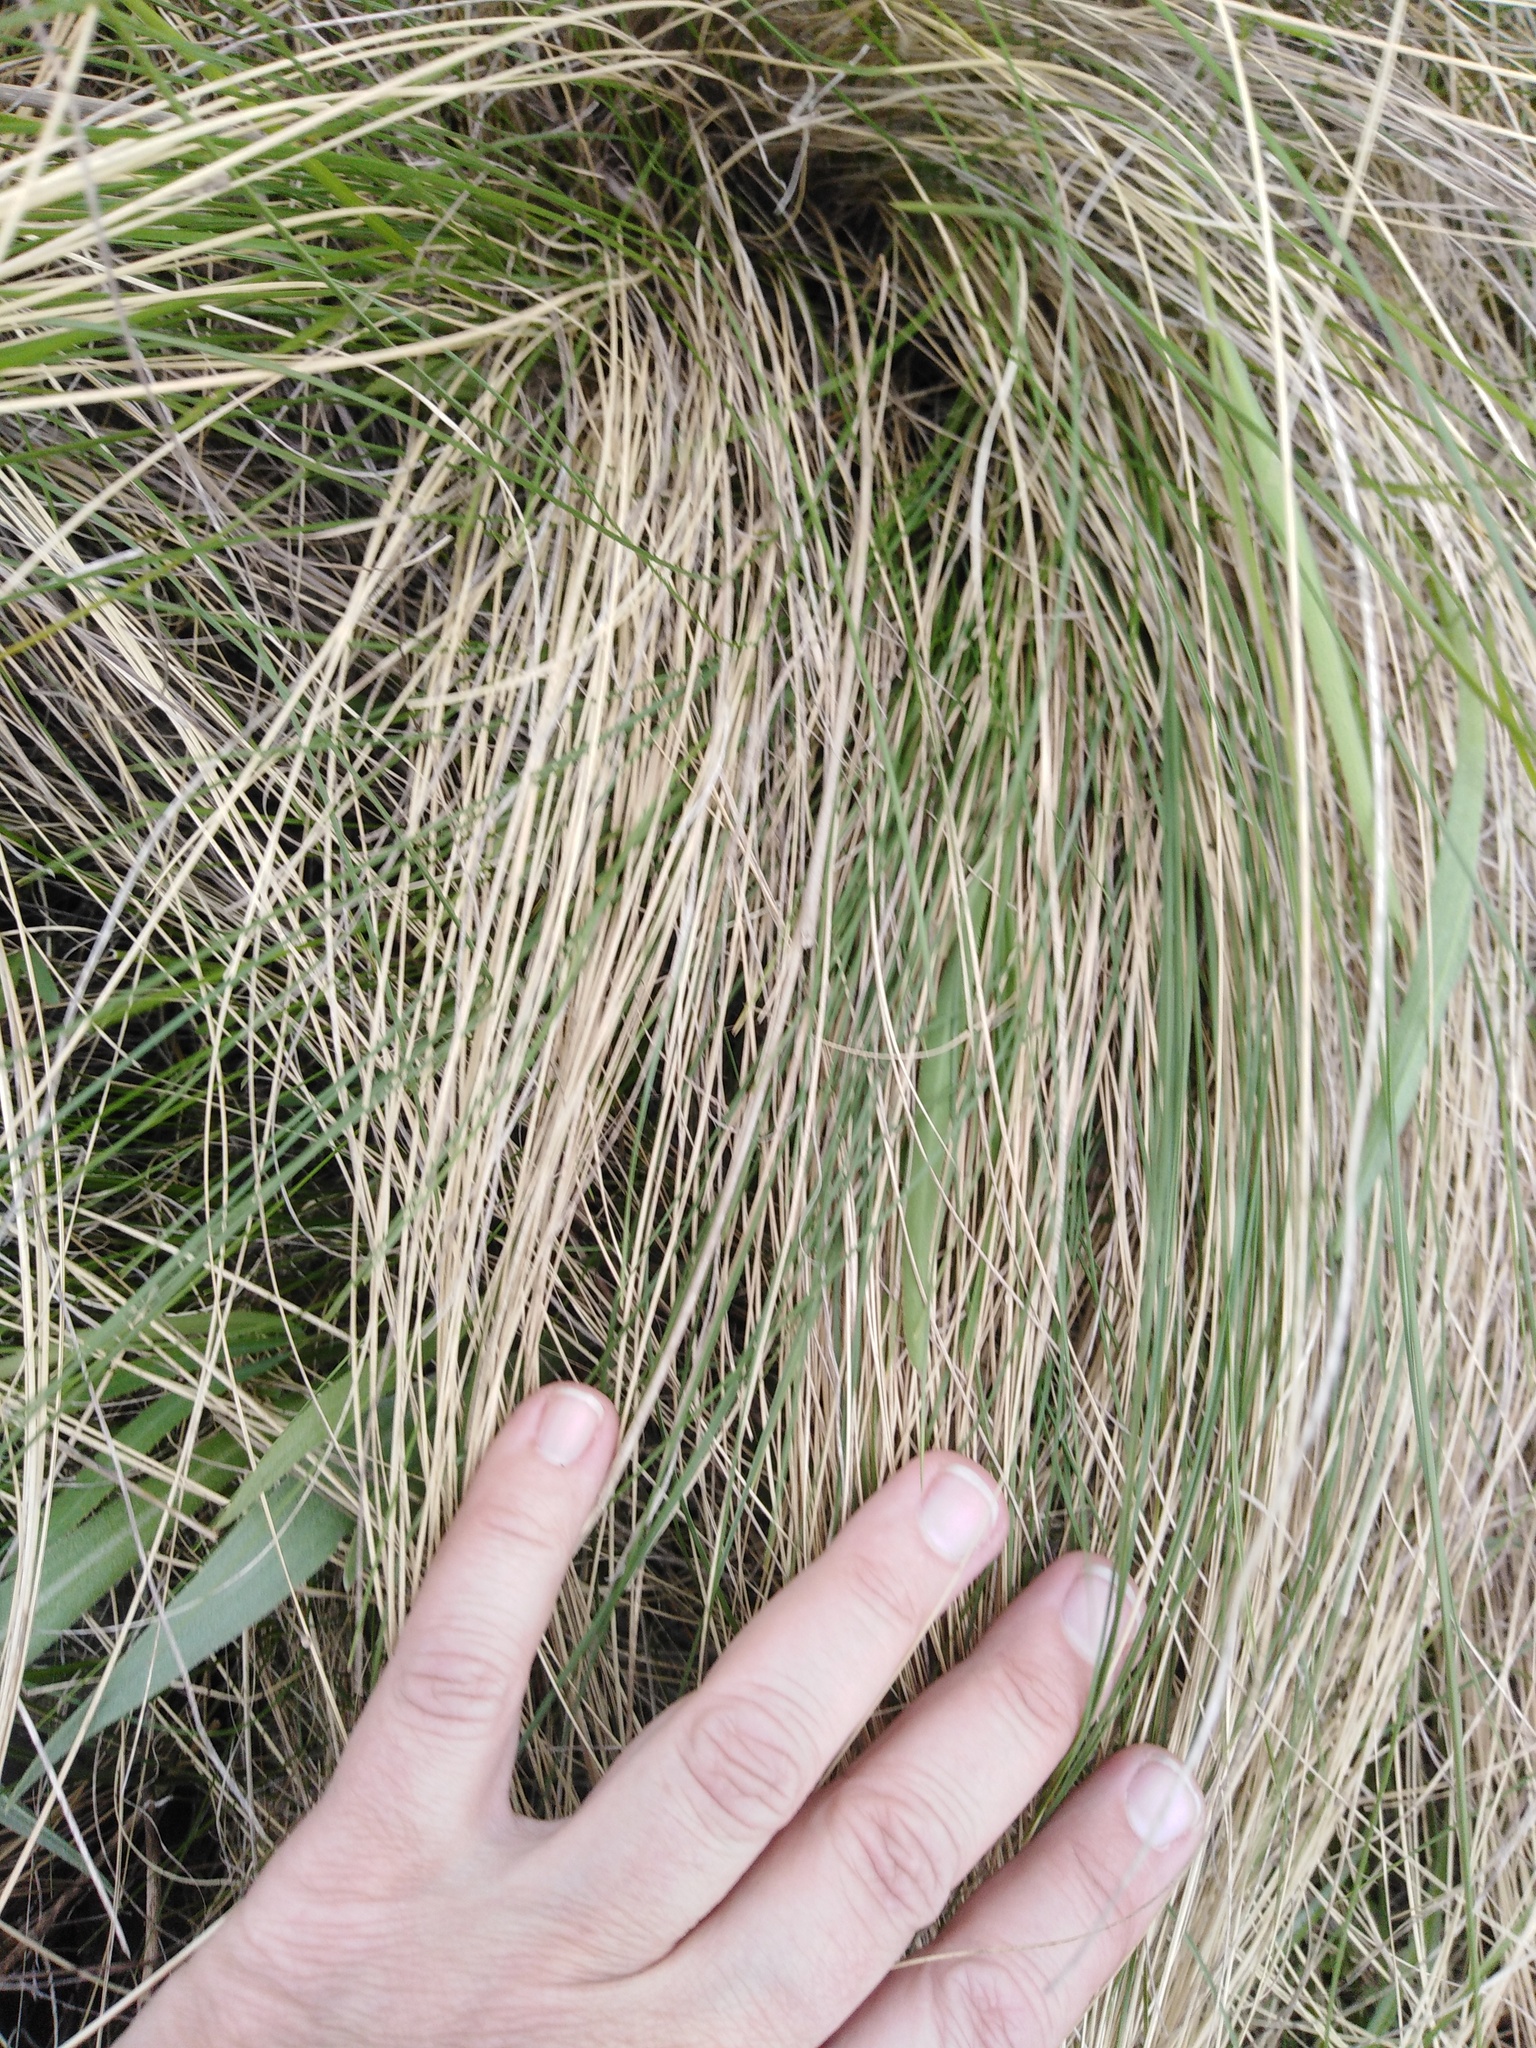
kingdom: Plantae
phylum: Tracheophyta
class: Liliopsida
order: Poales
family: Poaceae
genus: Stipa
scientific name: Stipa tirsa
